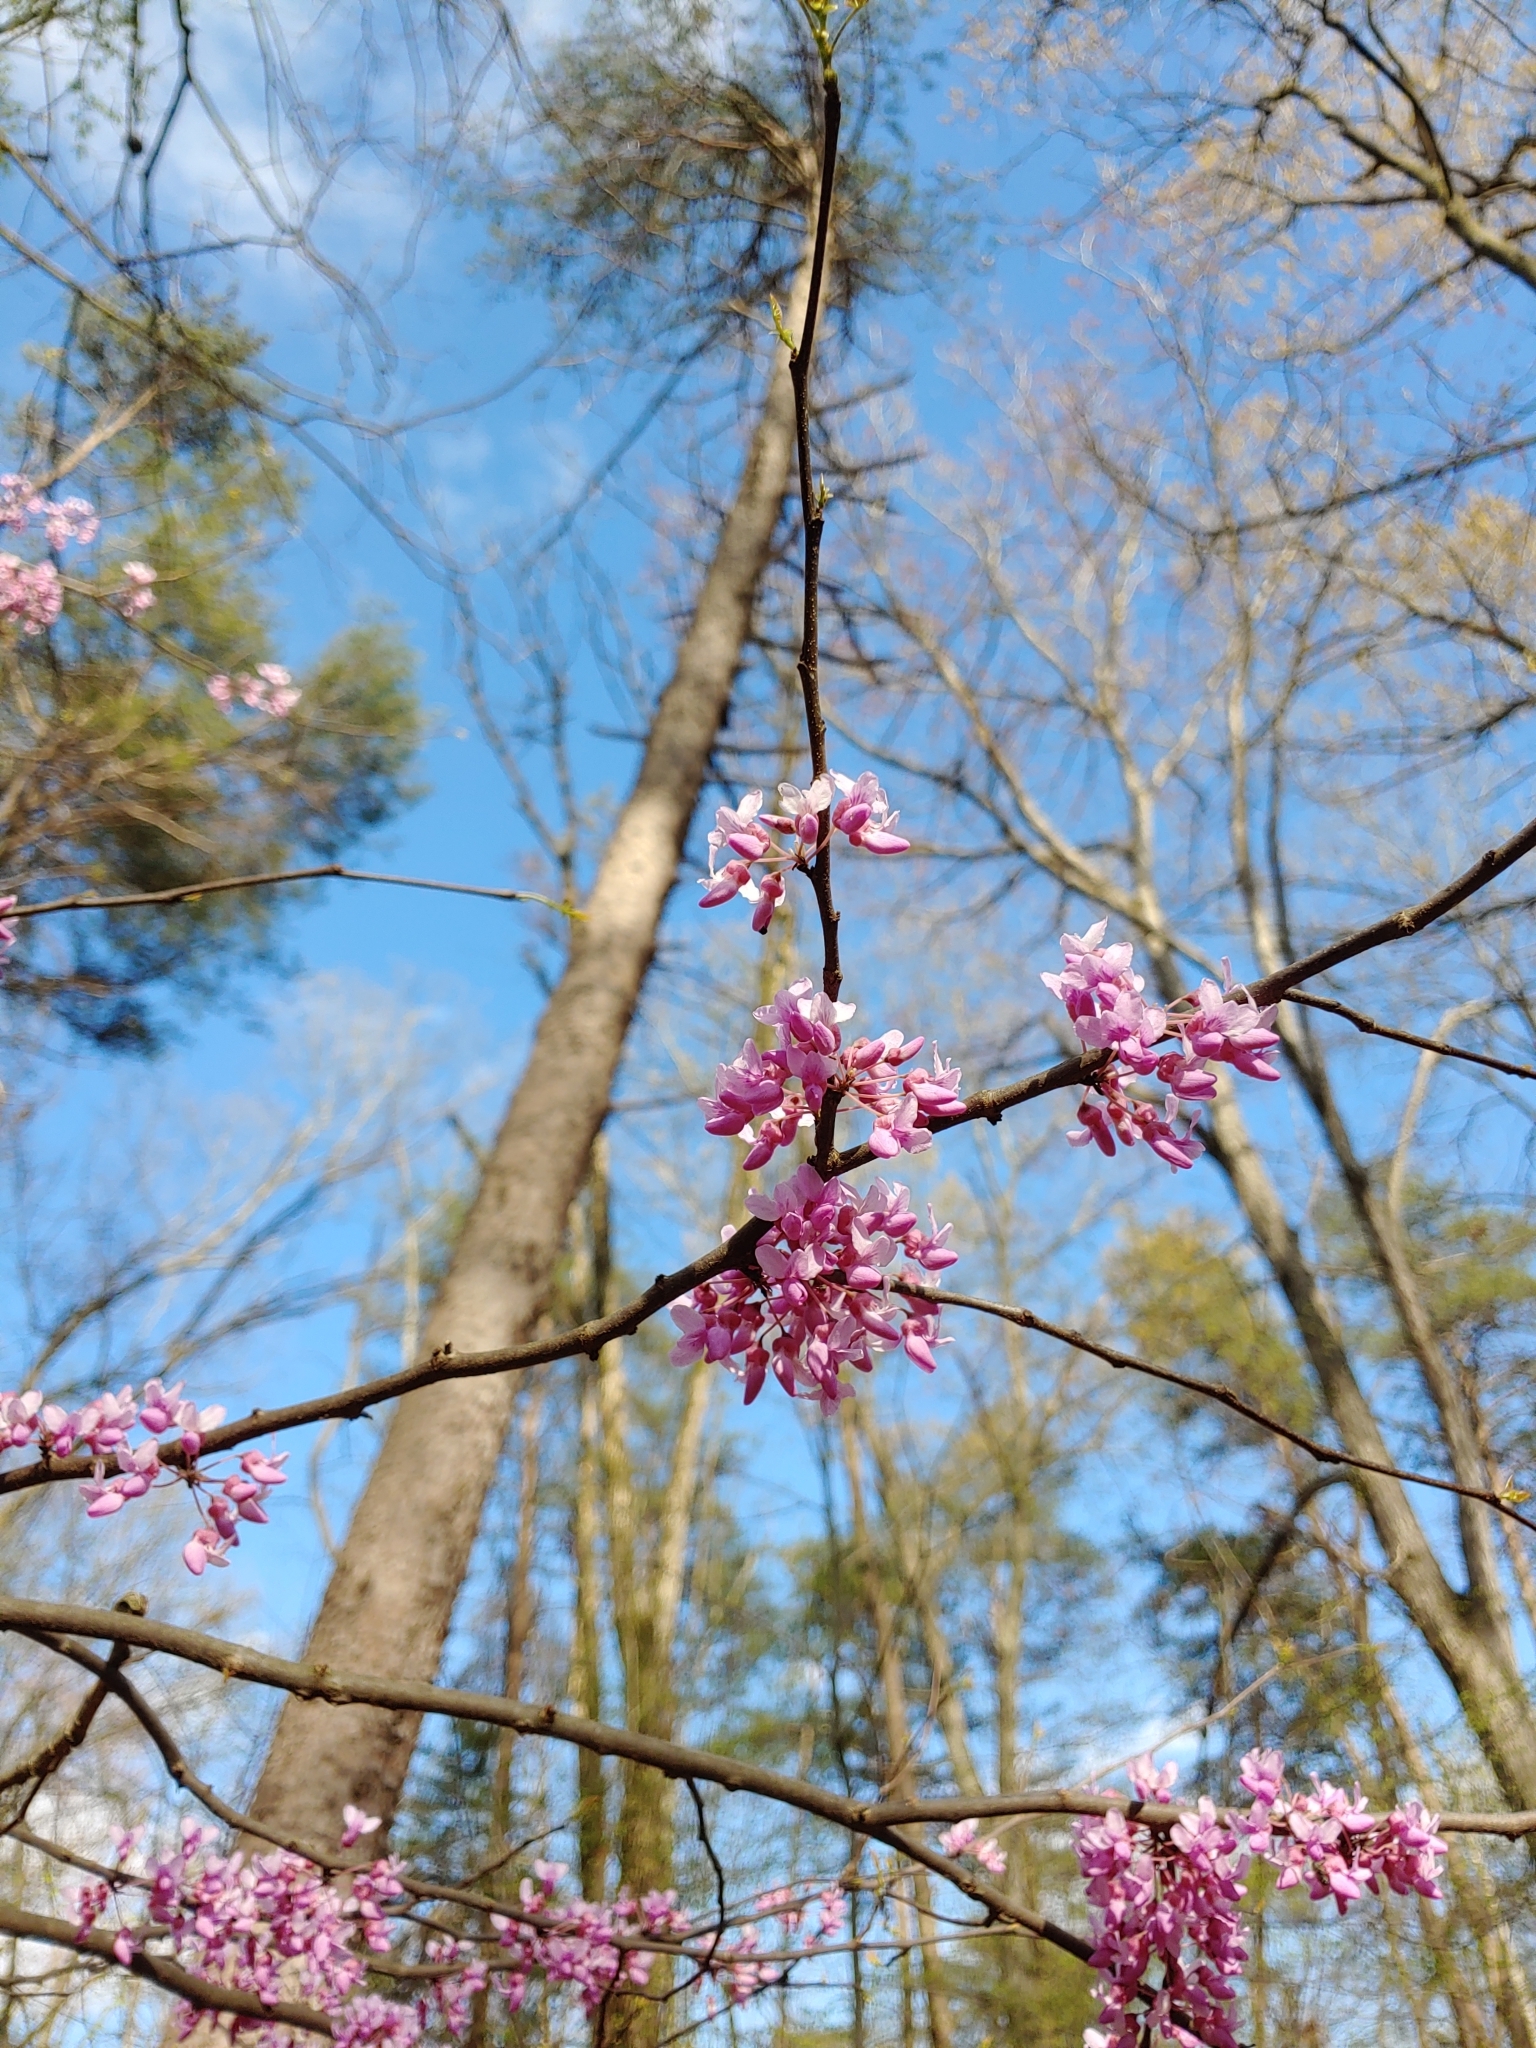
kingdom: Plantae
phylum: Tracheophyta
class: Magnoliopsida
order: Fabales
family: Fabaceae
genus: Cercis
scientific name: Cercis canadensis
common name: Eastern redbud
